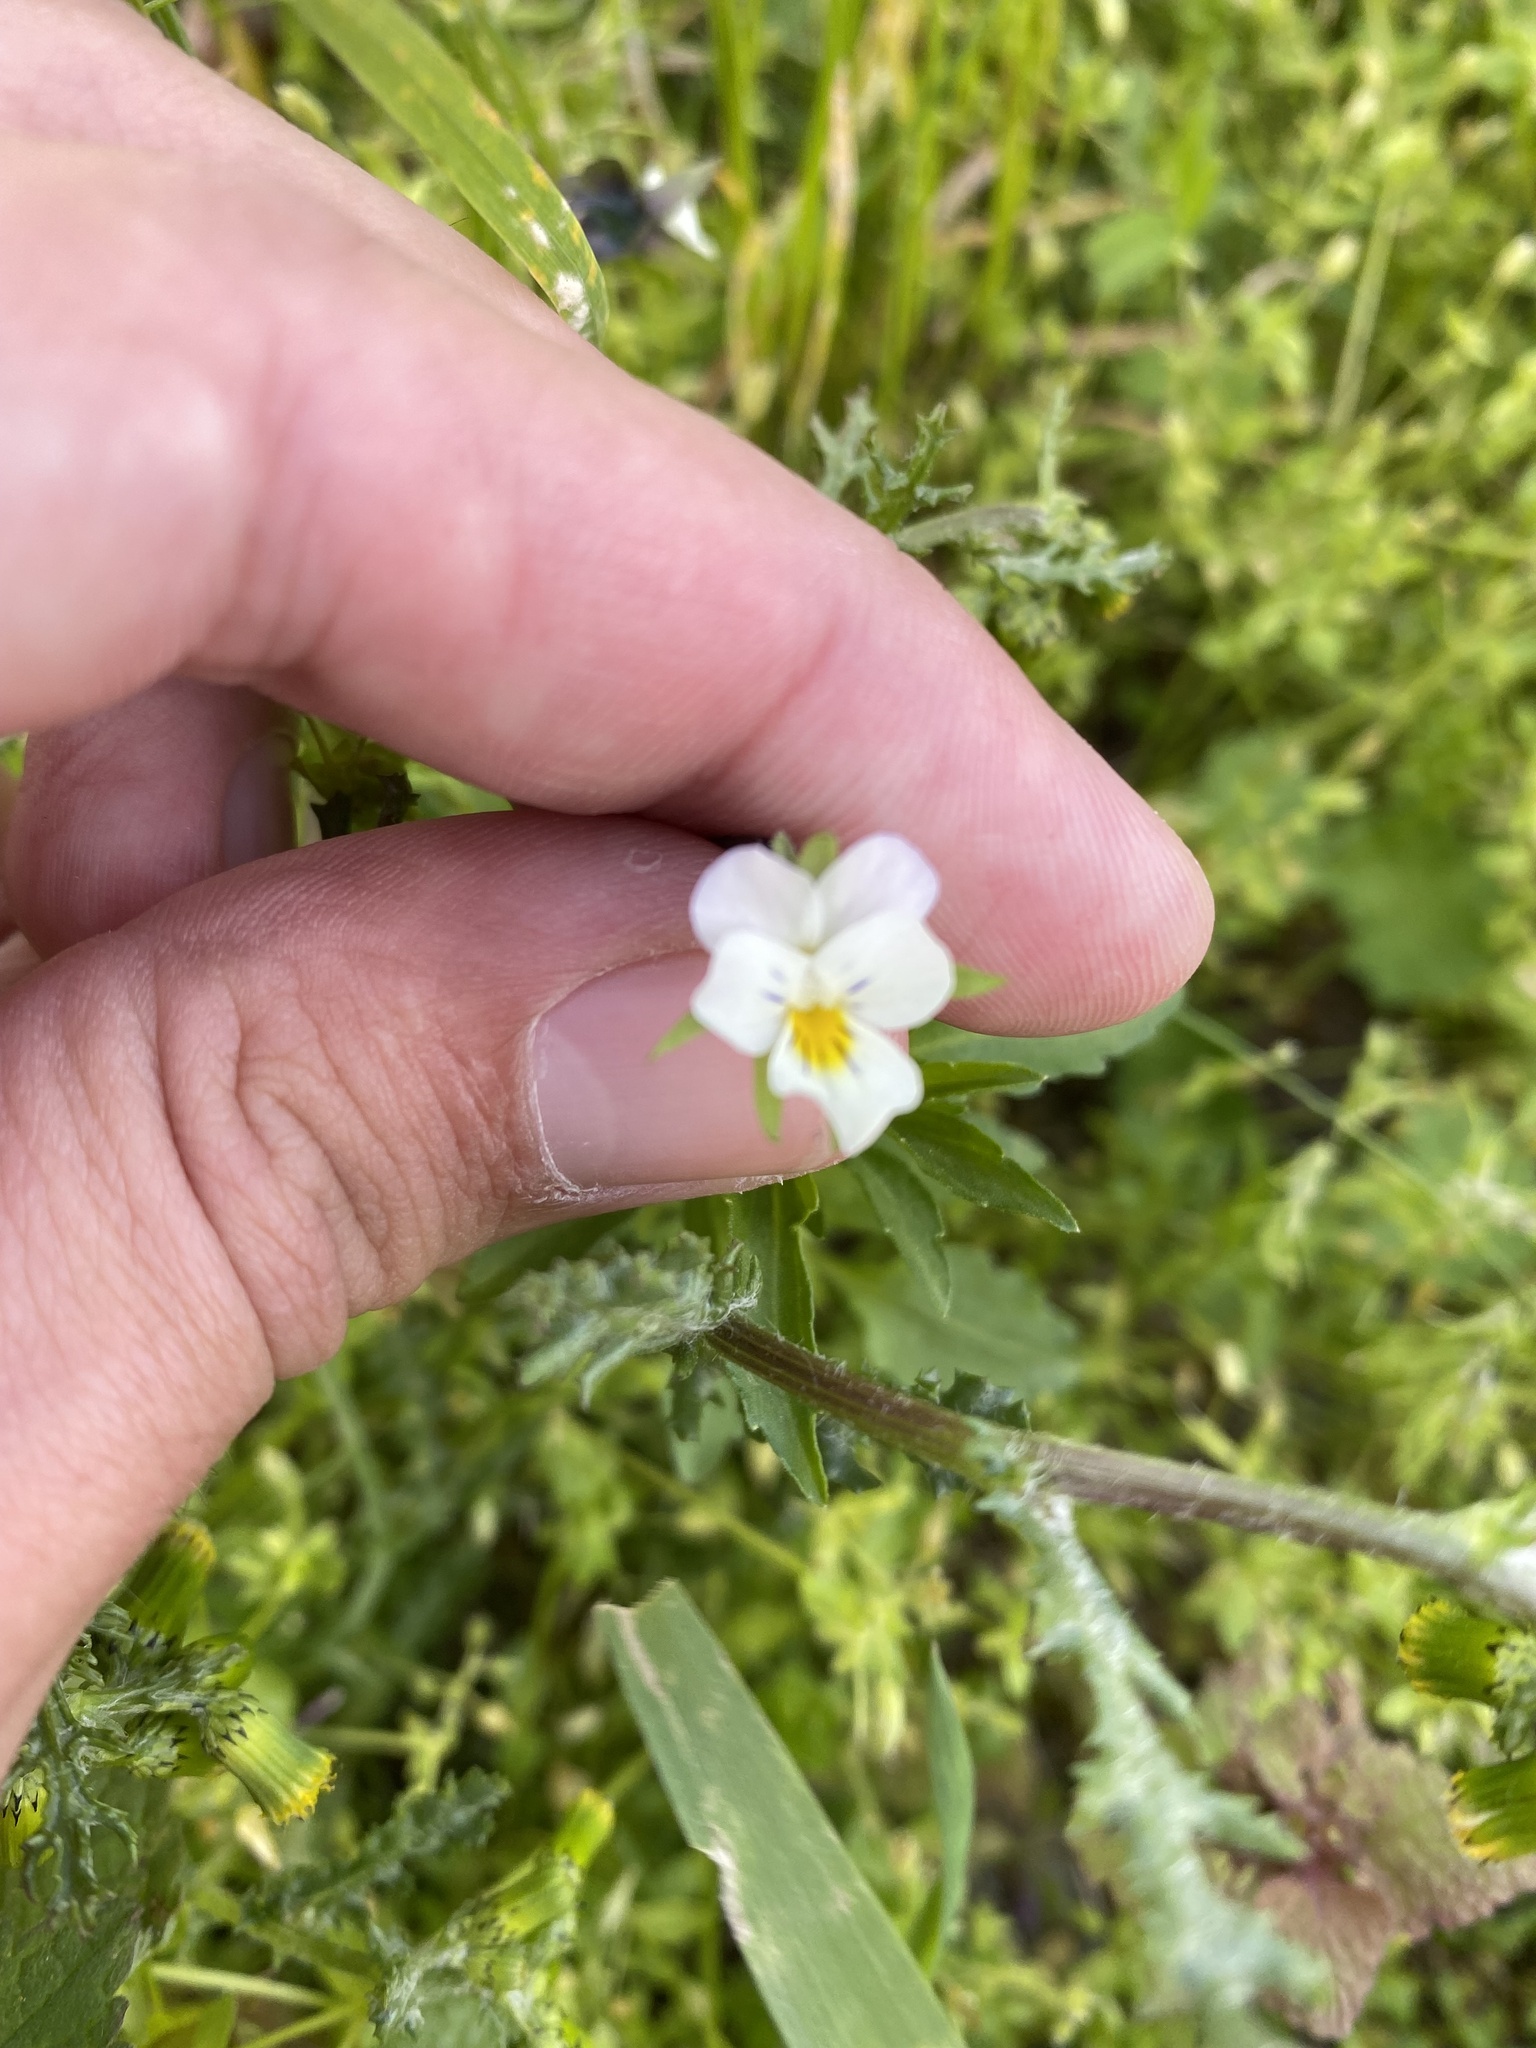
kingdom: Plantae
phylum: Tracheophyta
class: Magnoliopsida
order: Malpighiales
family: Violaceae
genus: Viola
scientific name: Viola arvensis
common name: Field pansy
